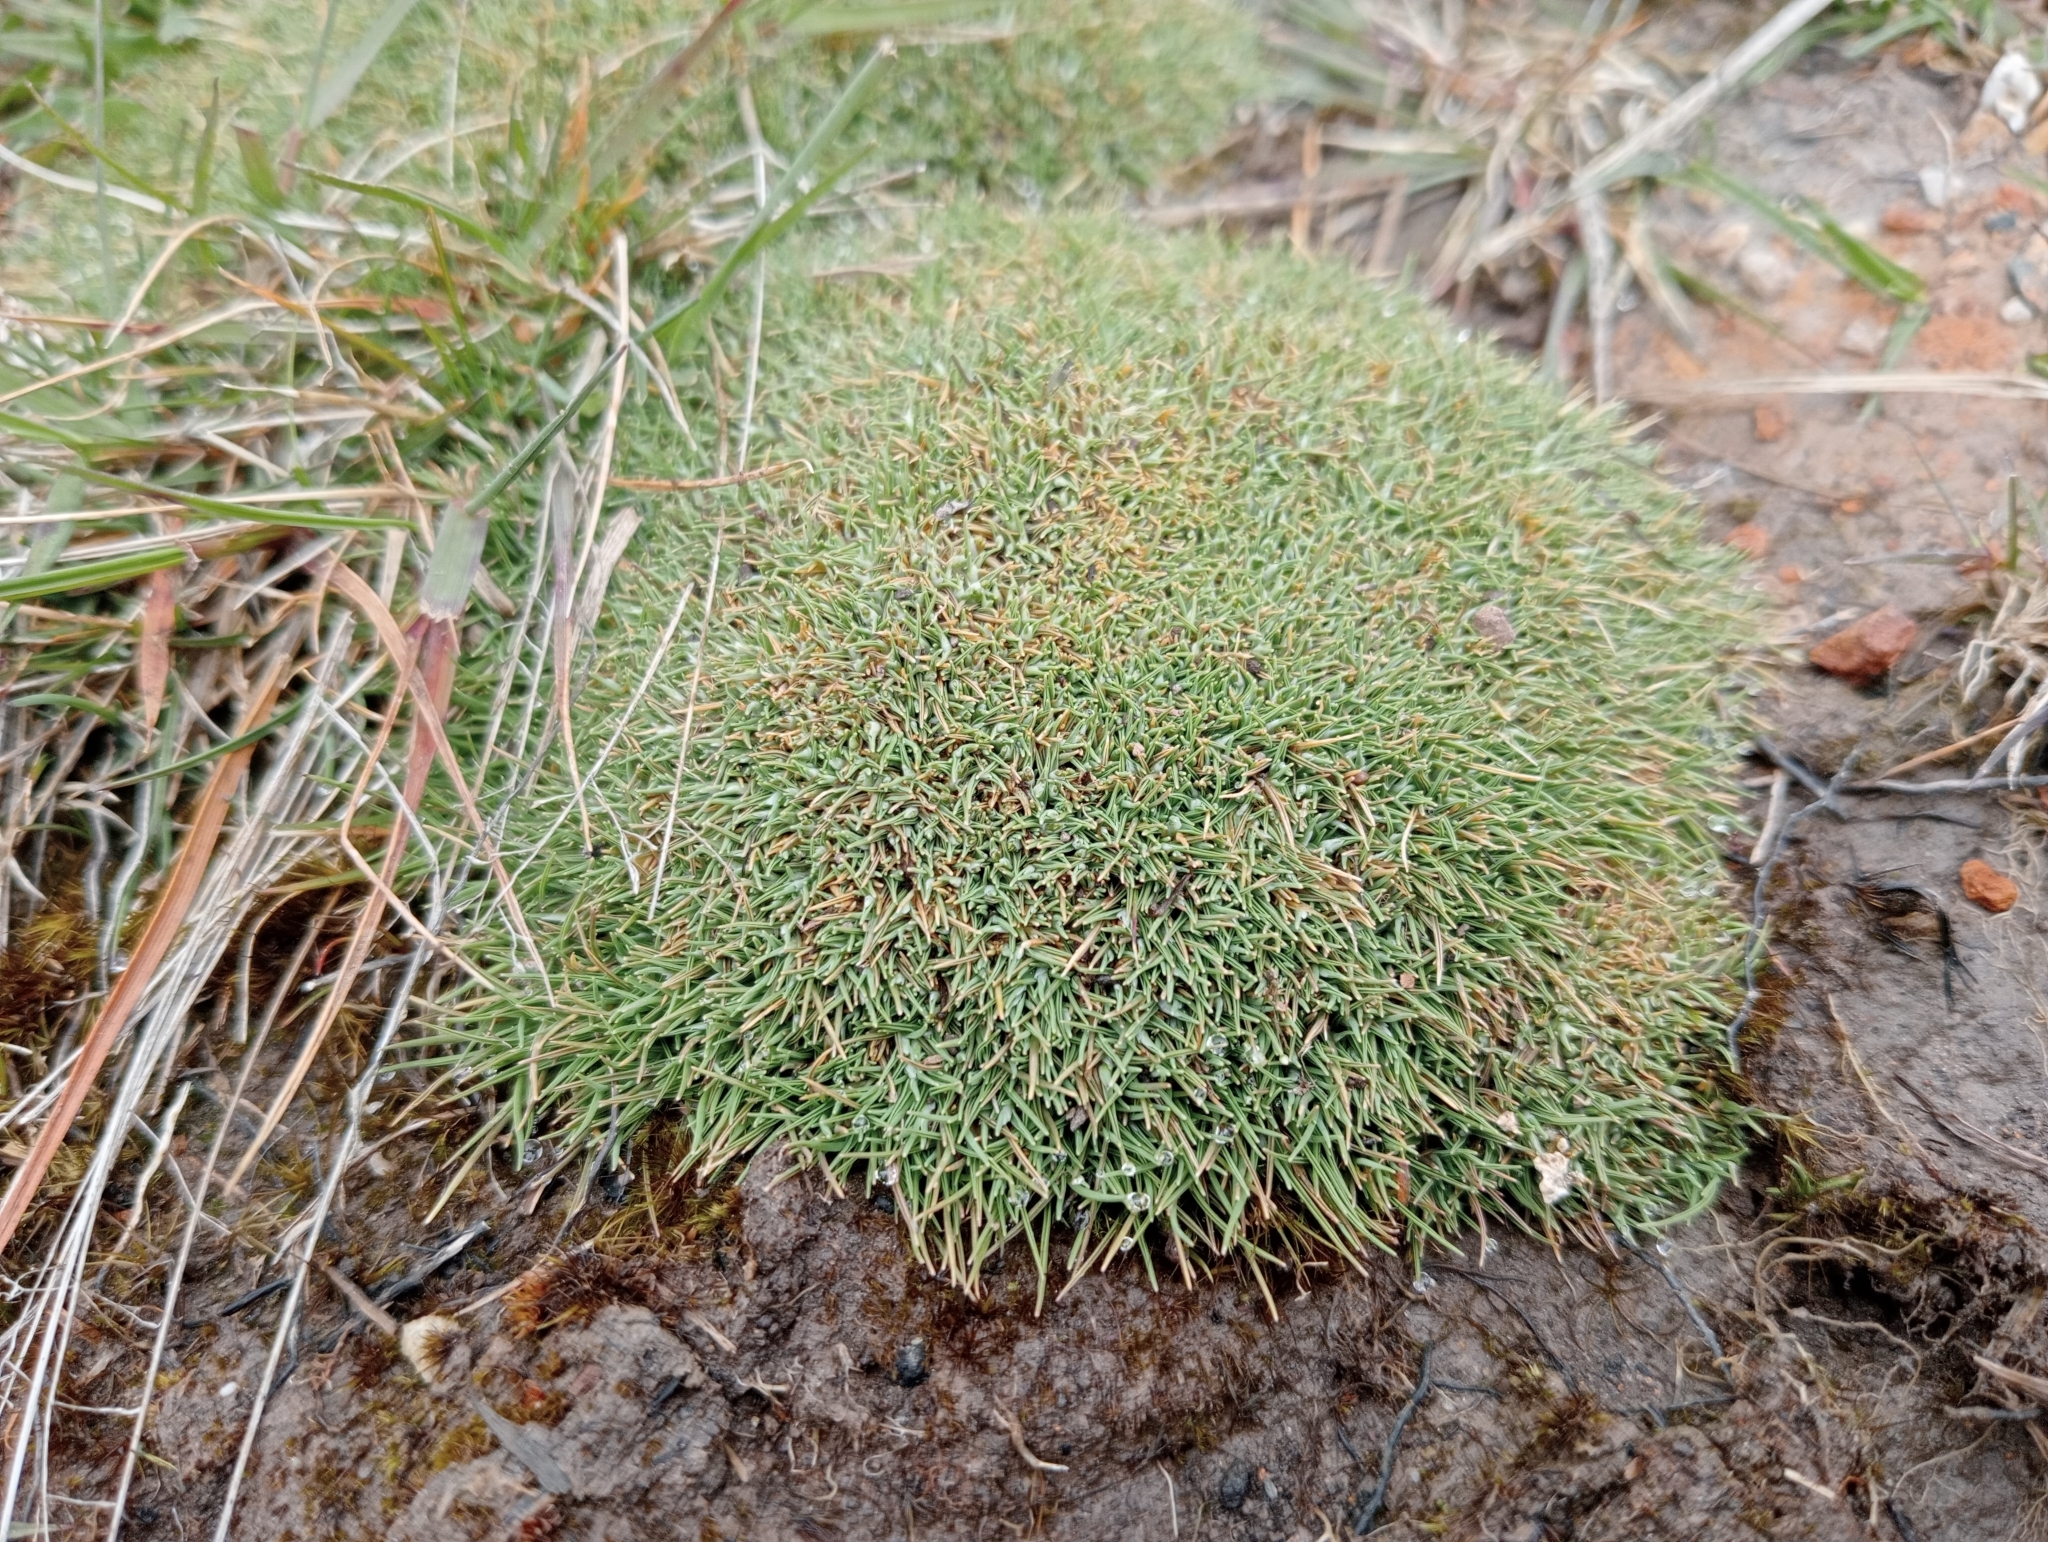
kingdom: Plantae
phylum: Tracheophyta
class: Liliopsida
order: Poales
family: Poaceae
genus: Agrostis
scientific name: Agrostis muscosa
